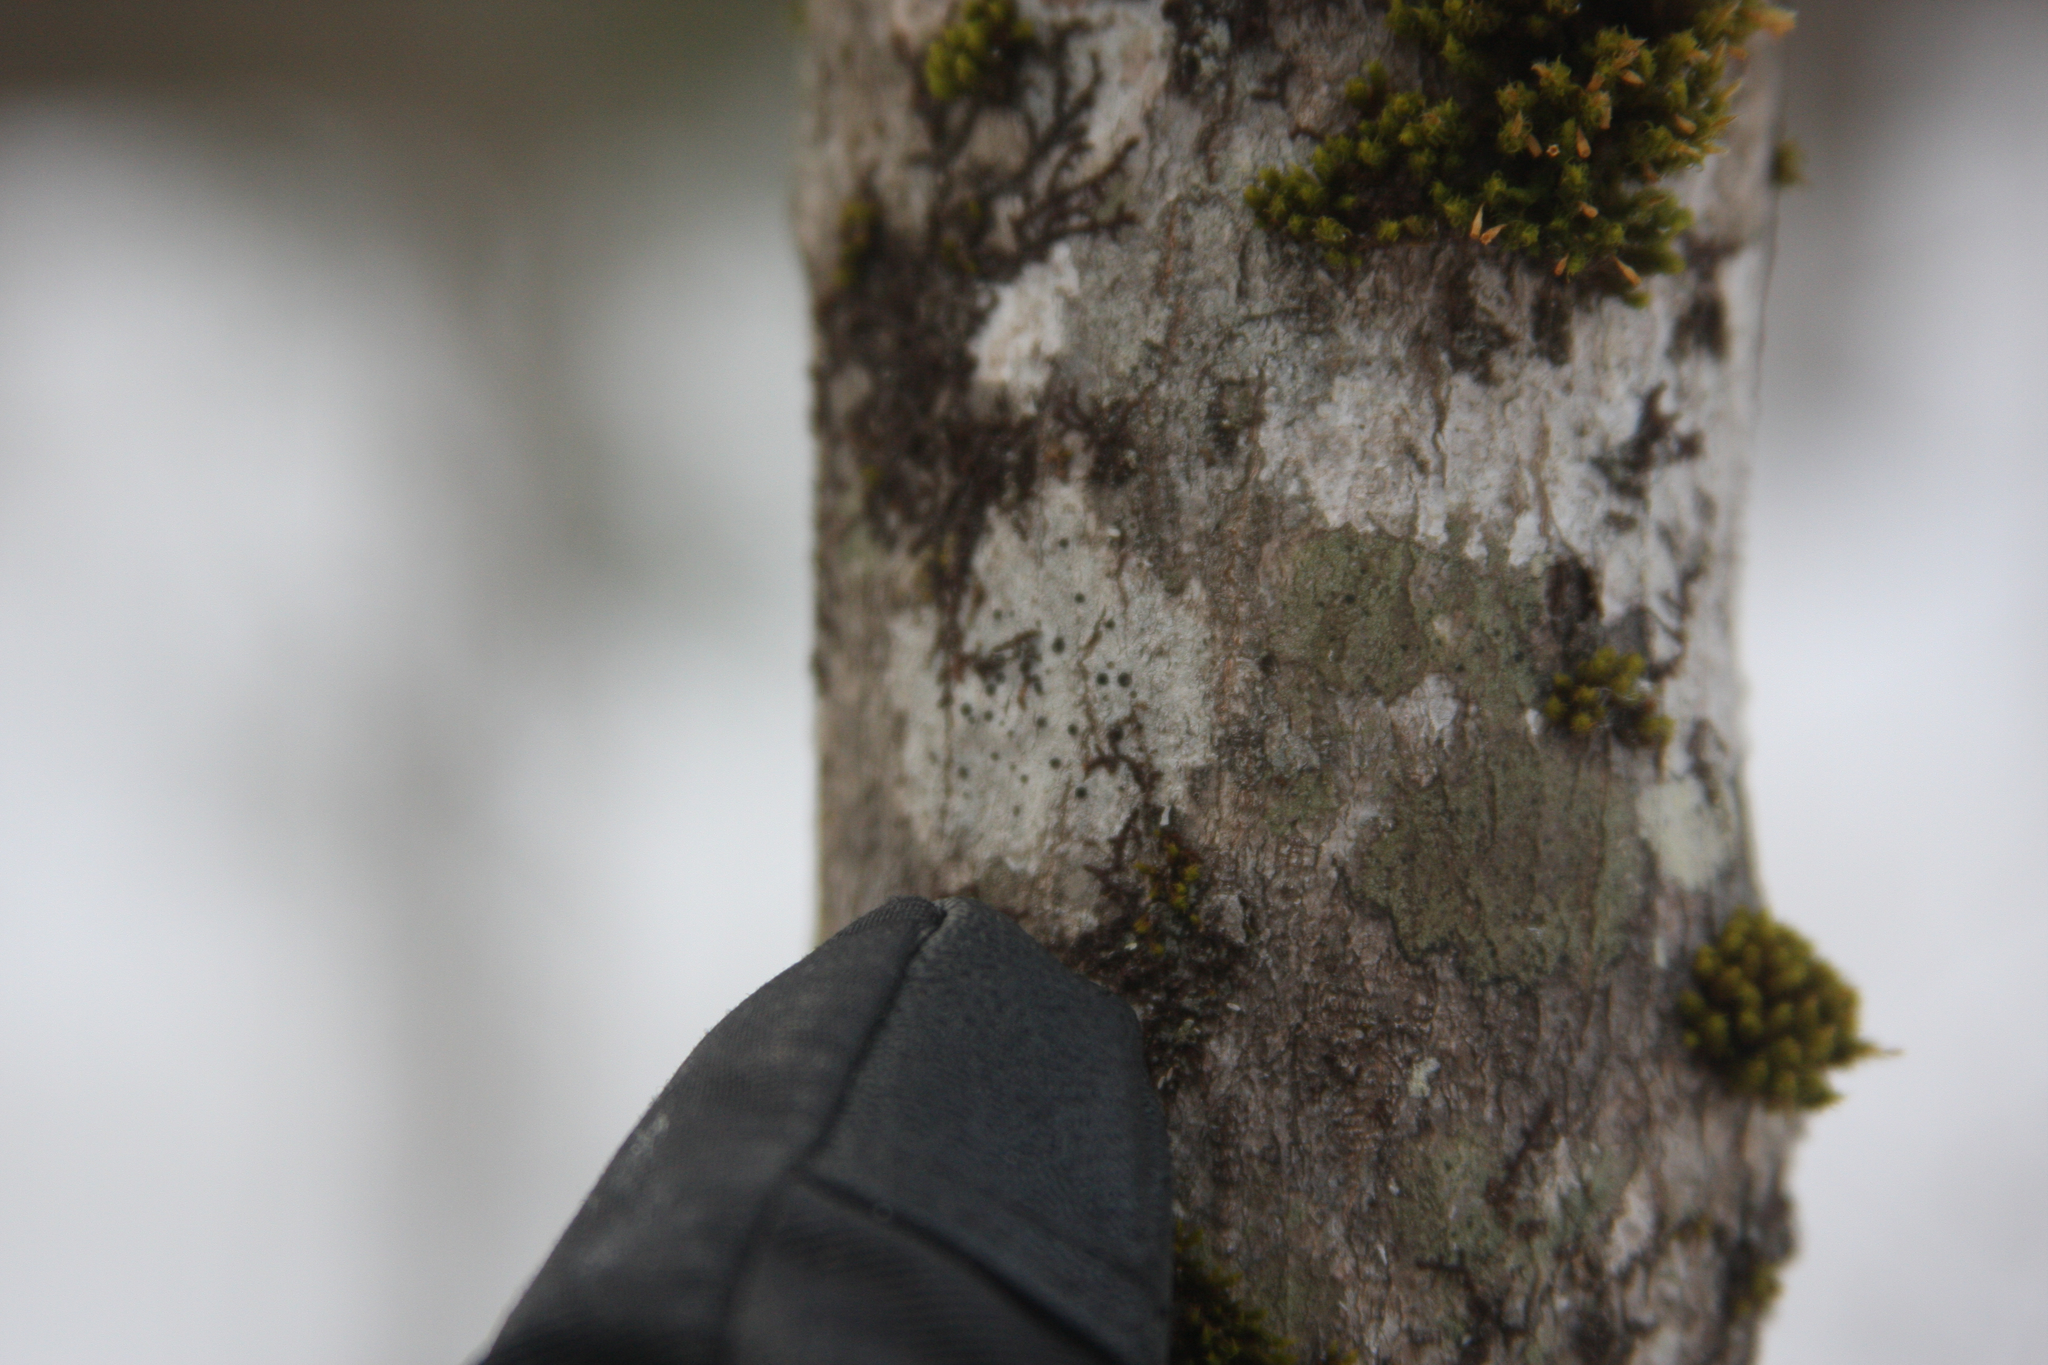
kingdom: Plantae
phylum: Bryophyta
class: Bryopsida
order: Orthotrichales
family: Orthotrichaceae
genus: Ulota
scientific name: Ulota crispa
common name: Crisped pincushion moss
